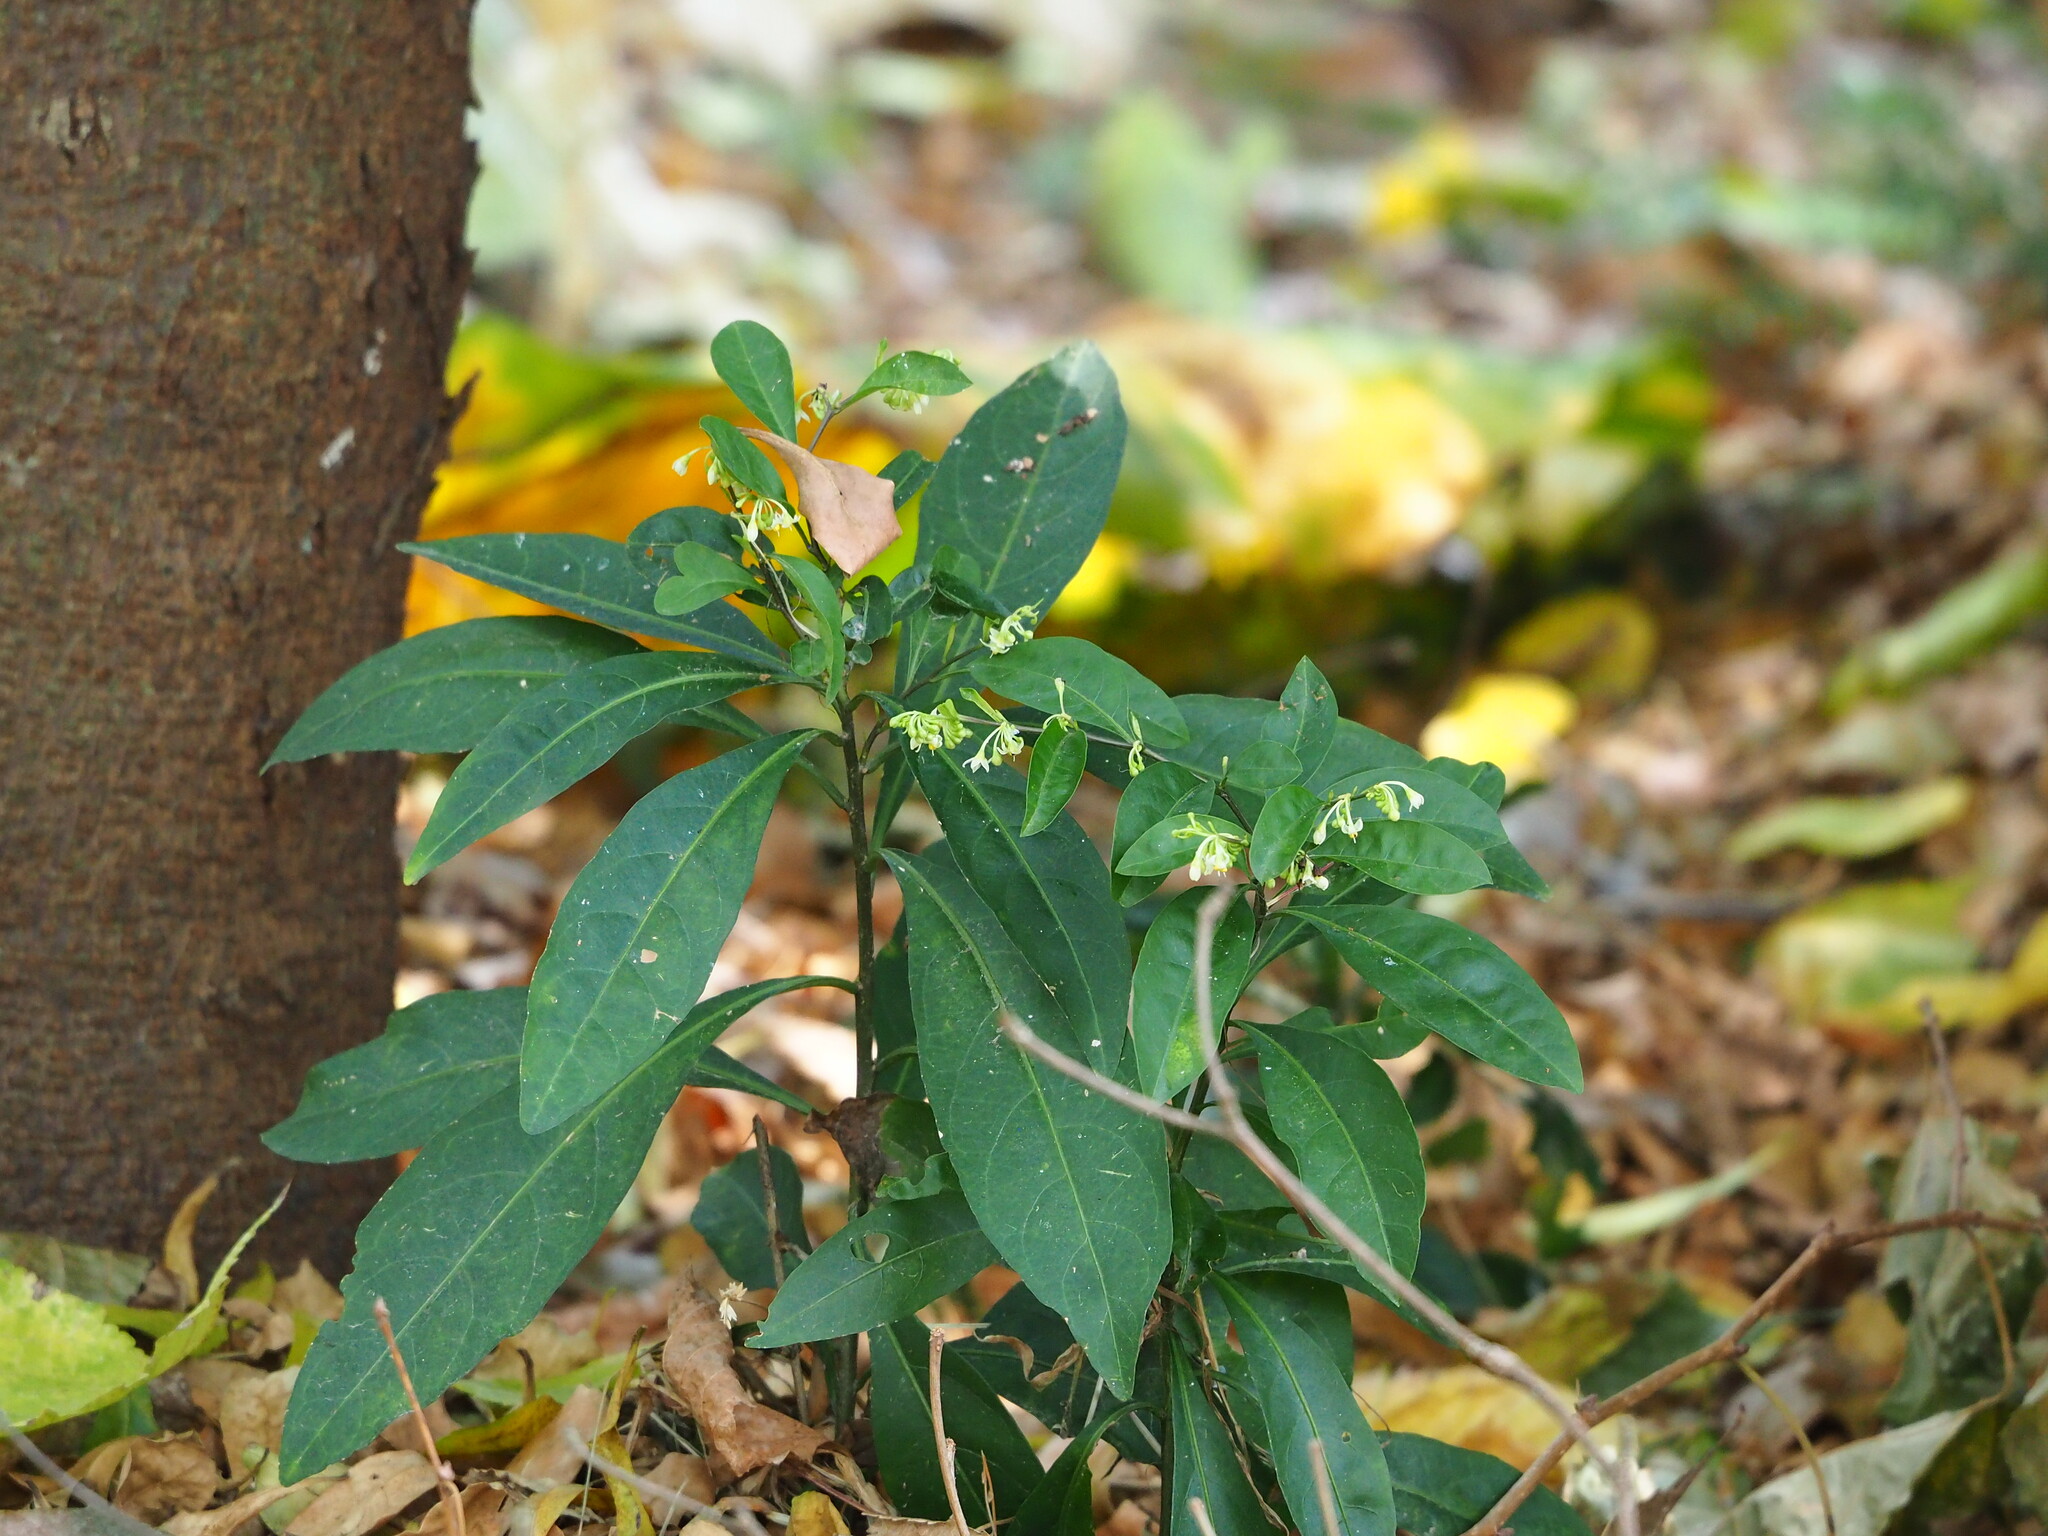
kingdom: Plantae
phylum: Tracheophyta
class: Magnoliopsida
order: Solanales
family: Solanaceae
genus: Solanum
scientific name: Solanum diphyllum
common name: Twoleaf nightshade
